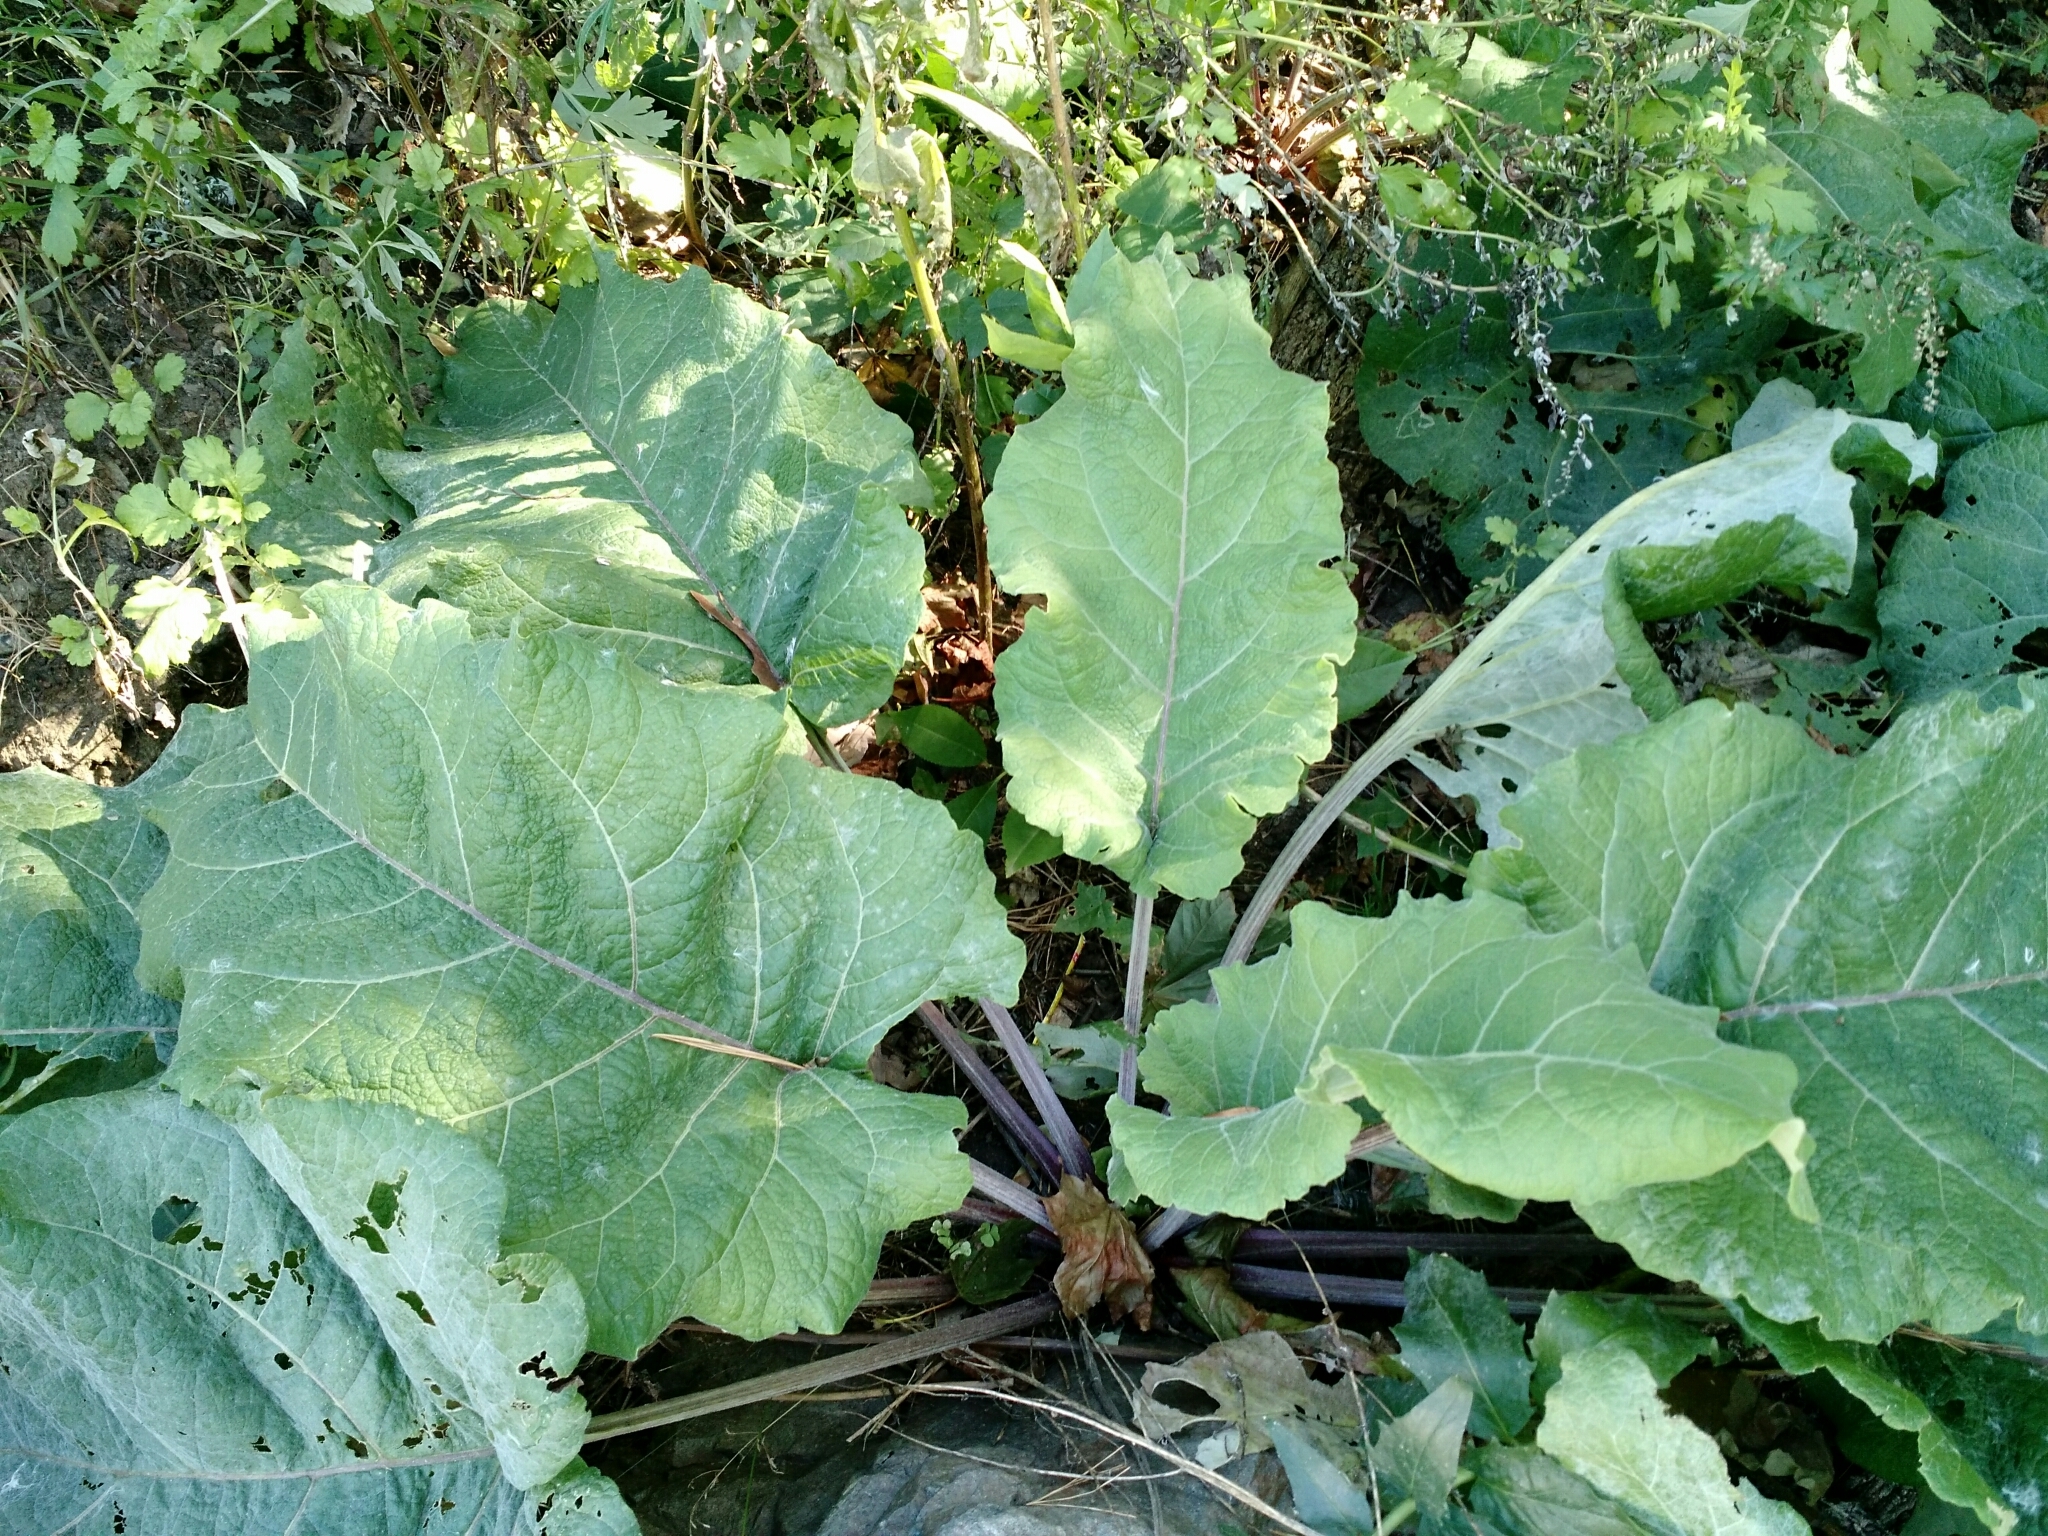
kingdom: Plantae
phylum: Tracheophyta
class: Magnoliopsida
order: Asterales
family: Asteraceae
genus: Arctium
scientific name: Arctium
